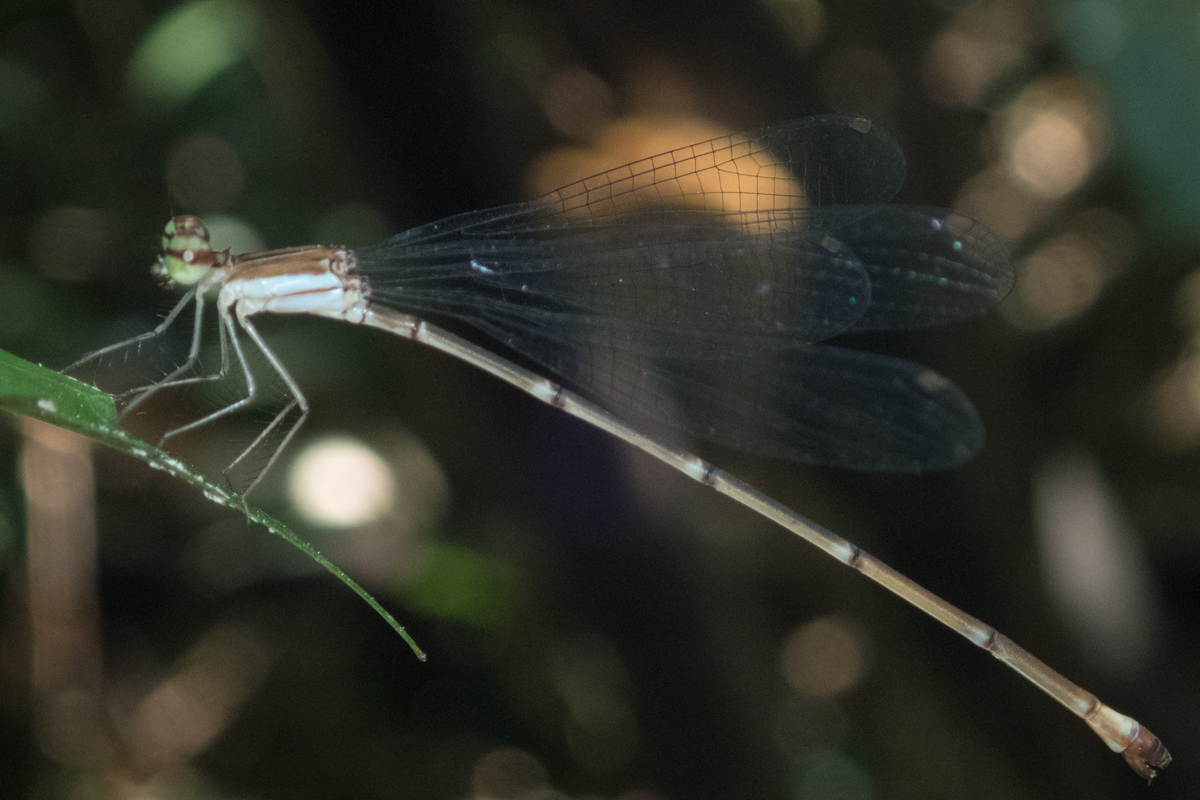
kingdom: Animalia
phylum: Arthropoda
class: Insecta
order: Odonata
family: Platycnemididae
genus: Coeliccia
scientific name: Coeliccia kazukoae
